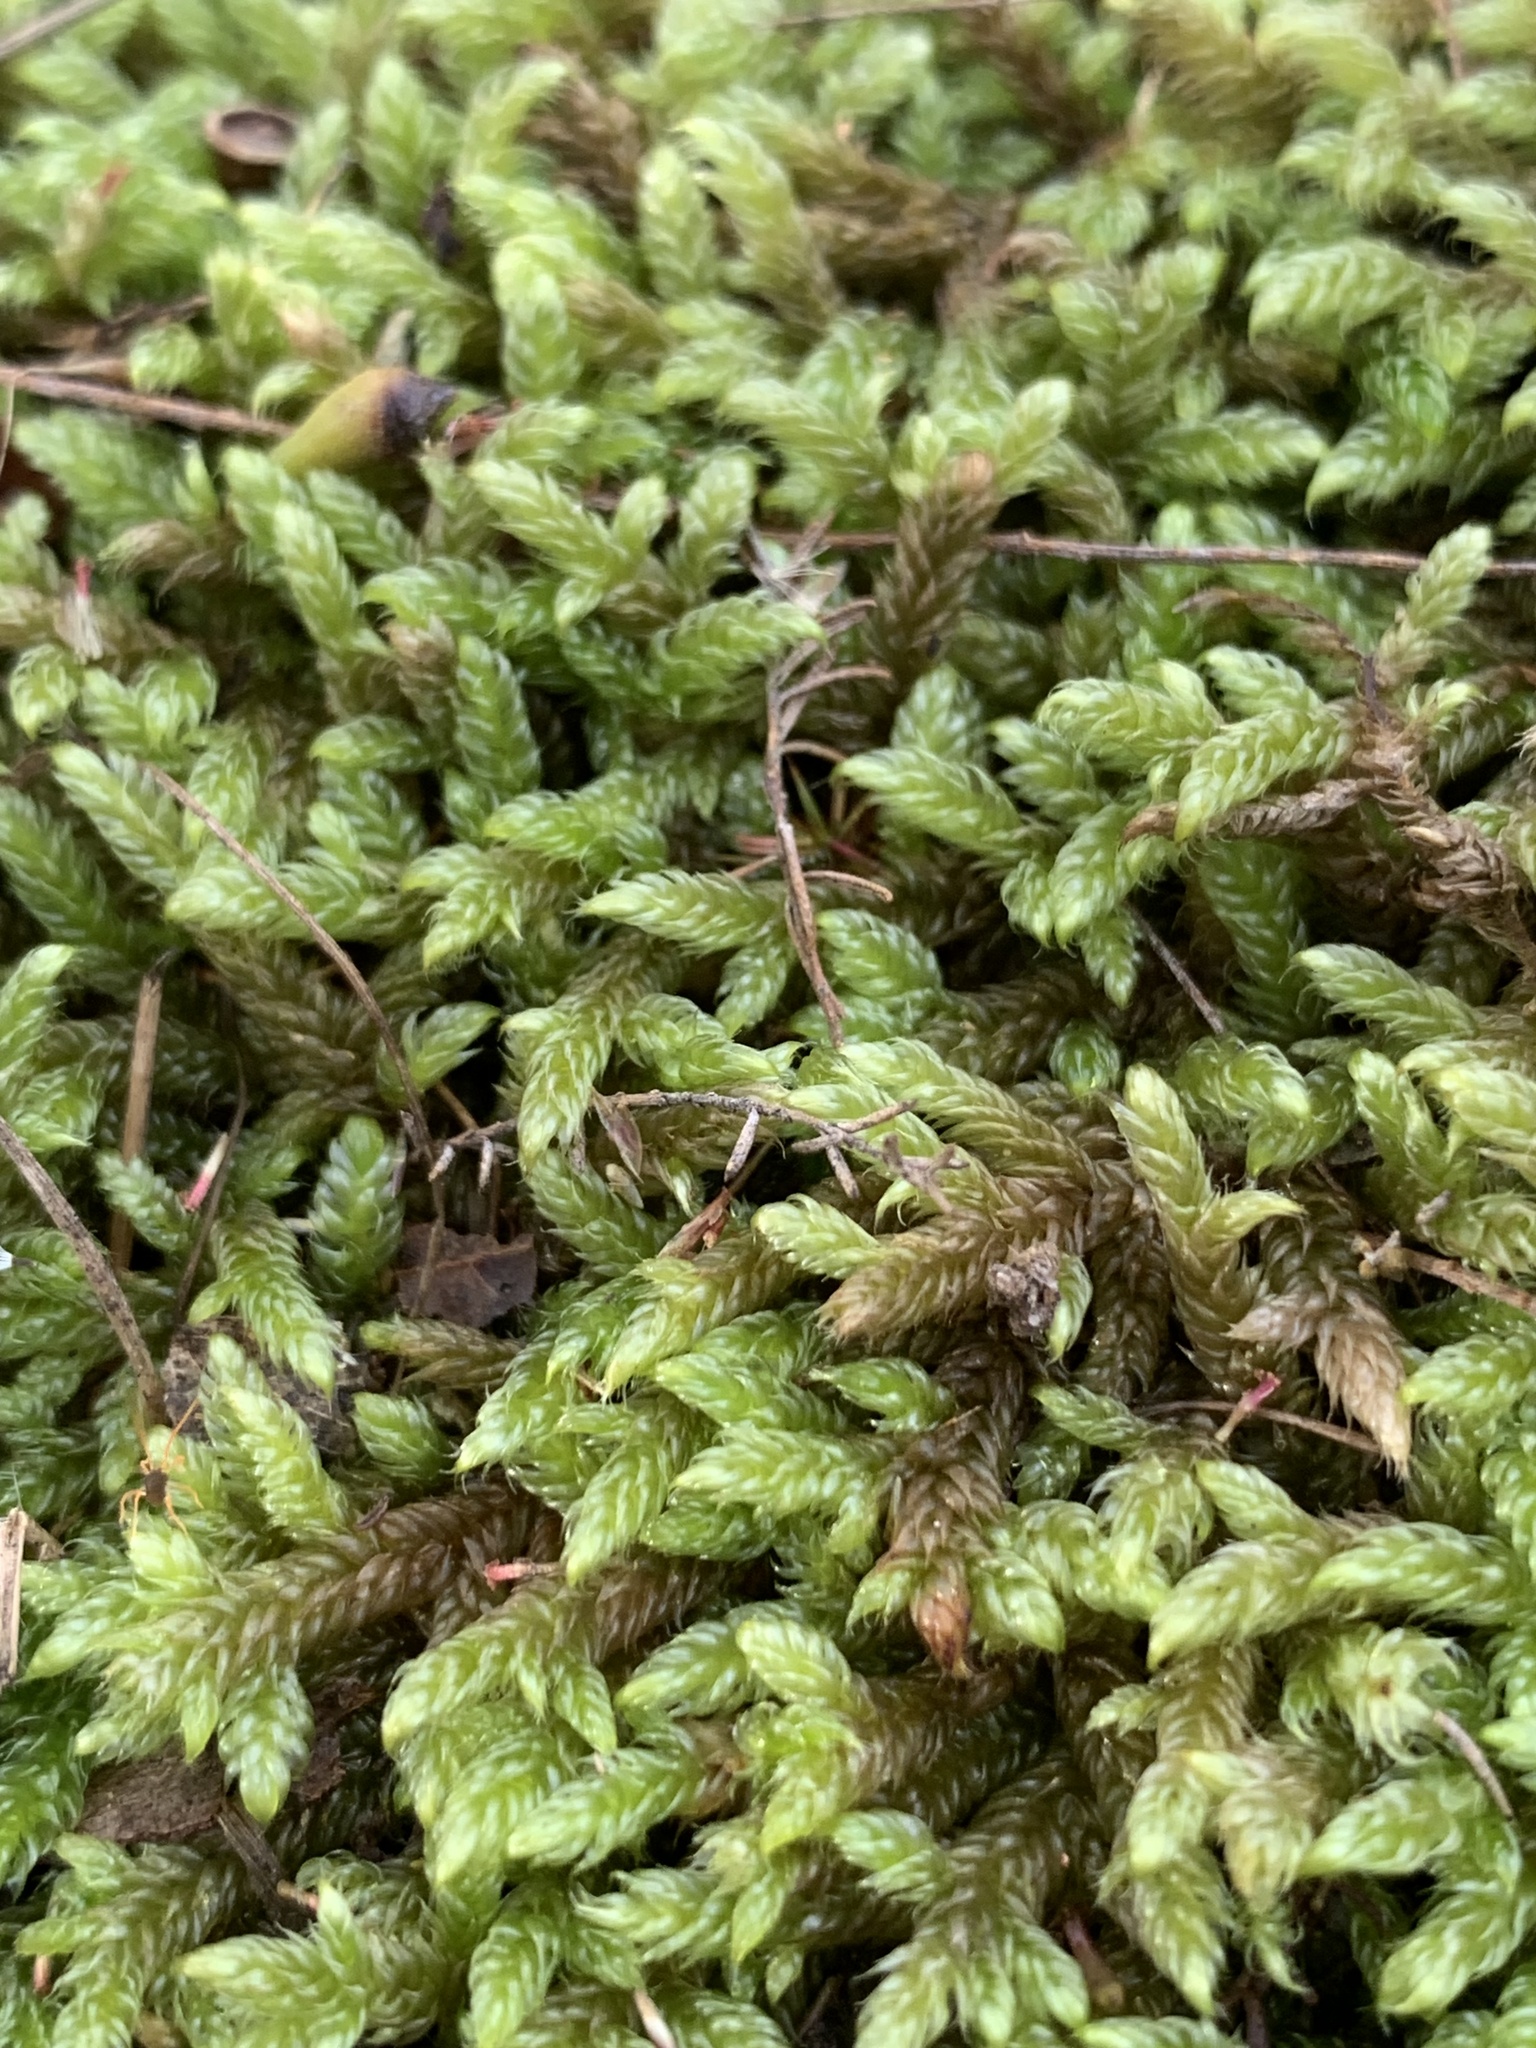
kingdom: Plantae
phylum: Bryophyta
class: Bryopsida
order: Hypnales
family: Hypnaceae
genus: Hypnum
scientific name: Hypnum cupressiforme
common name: Cypress-leaved plait-moss
